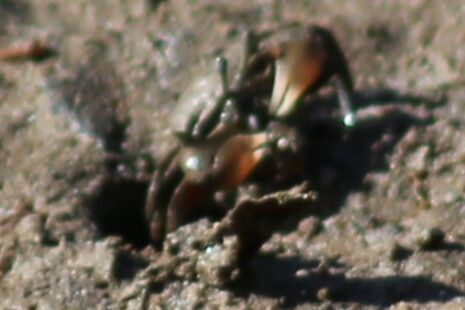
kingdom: Animalia
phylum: Arthropoda
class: Malacostraca
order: Decapoda
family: Heloeciidae
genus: Heloecius
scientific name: Heloecius cordiformis
